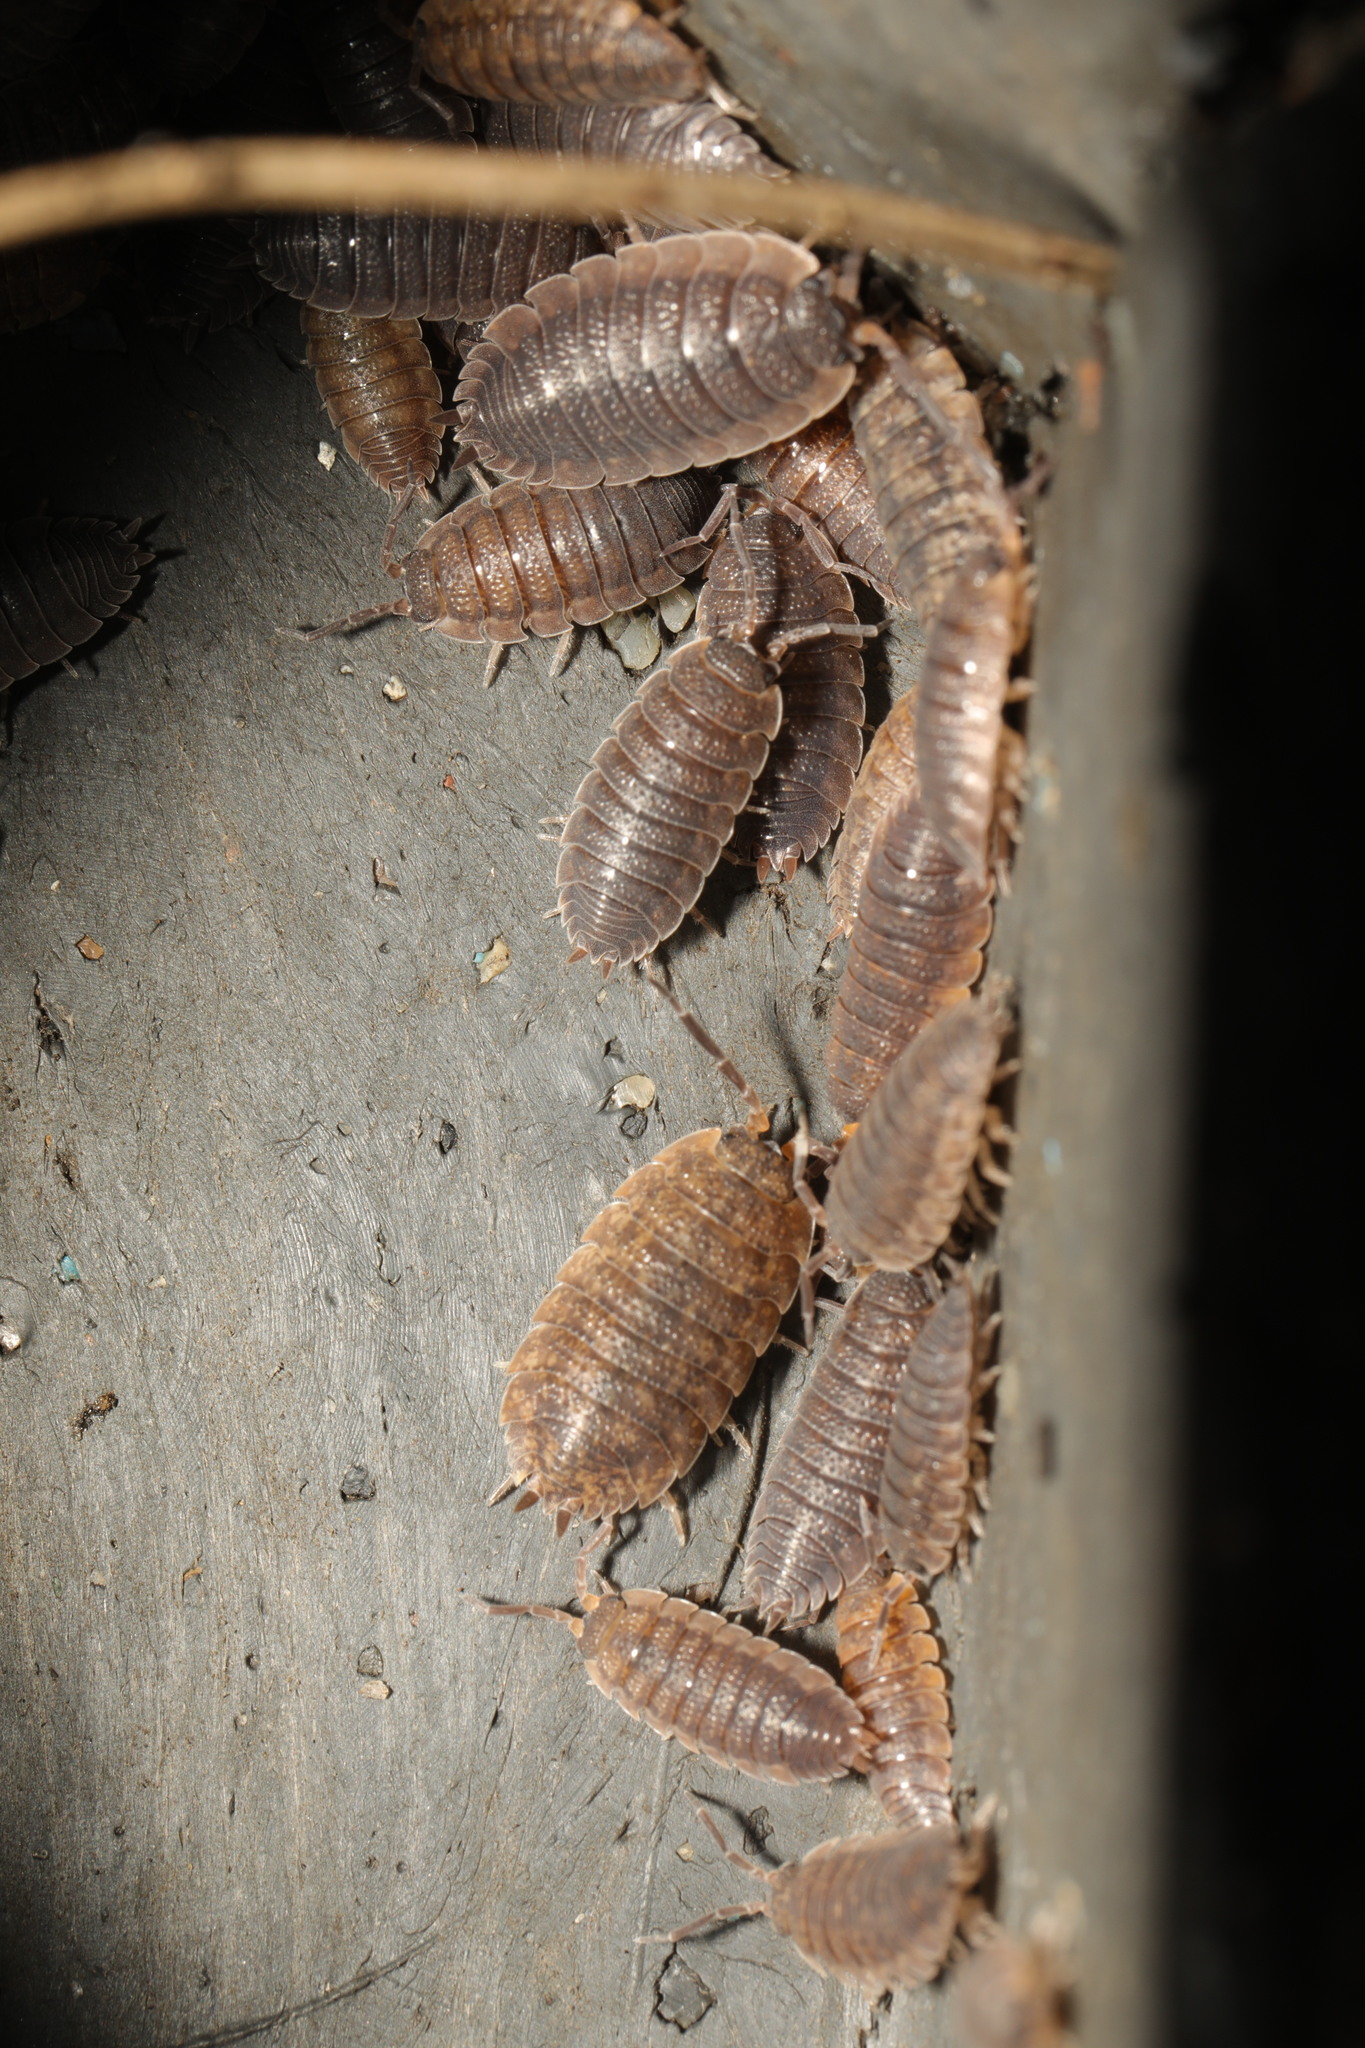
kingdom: Animalia
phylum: Arthropoda
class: Malacostraca
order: Isopoda
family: Porcellionidae
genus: Porcellio
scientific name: Porcellio scaber
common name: Common rough woodlouse
